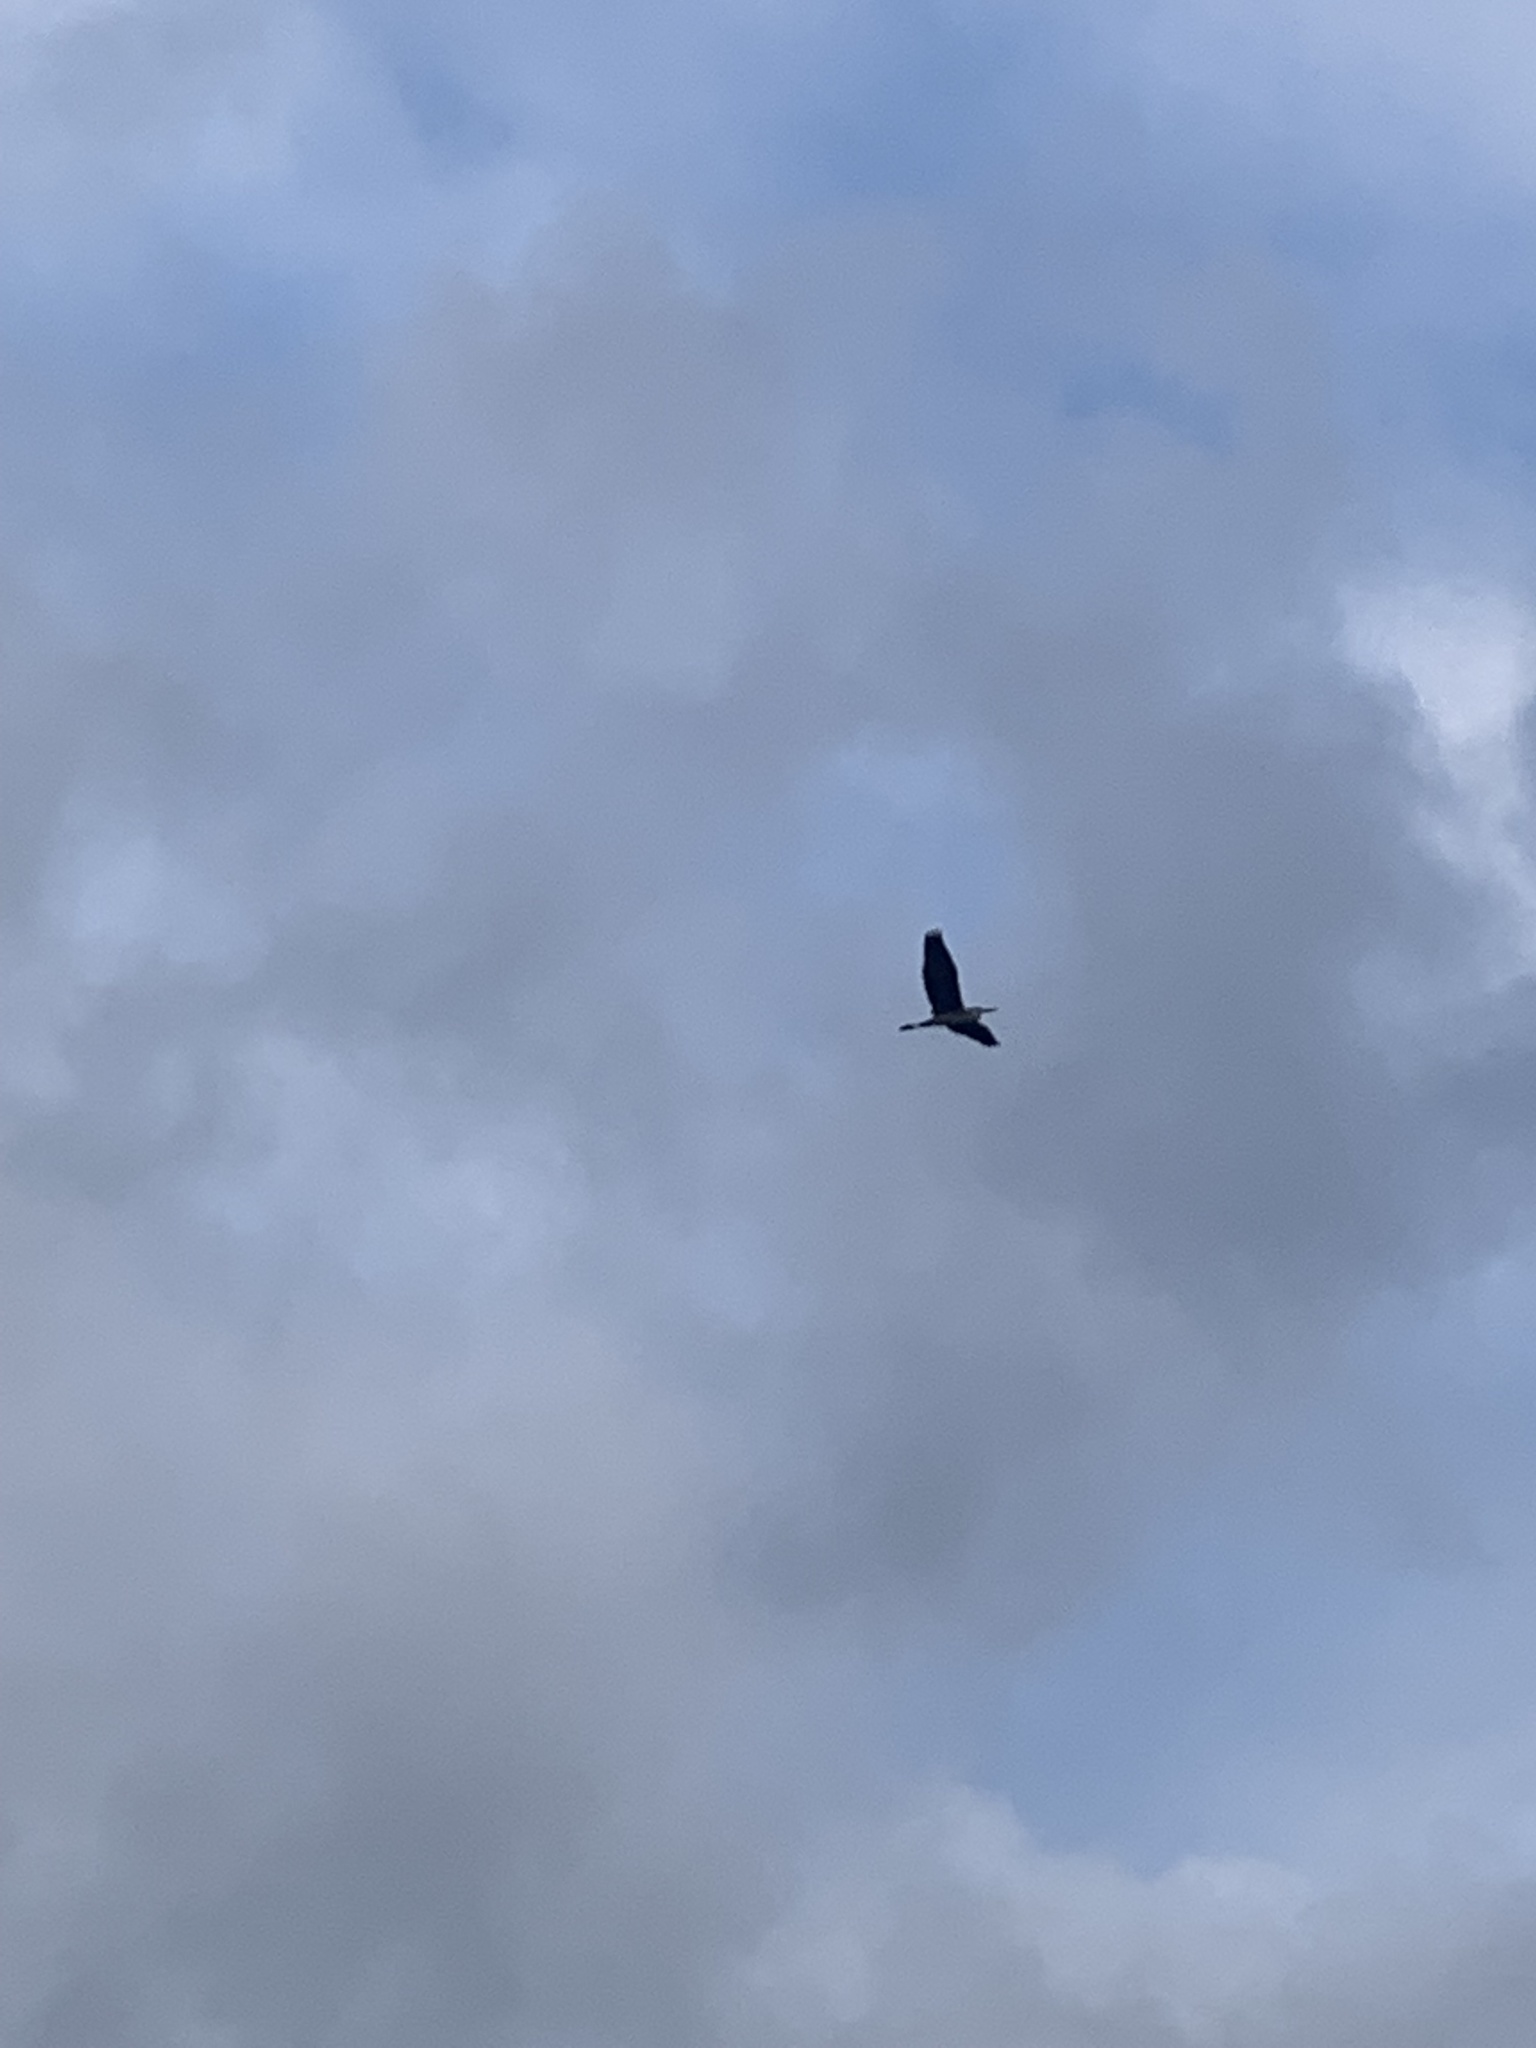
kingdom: Animalia
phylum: Chordata
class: Aves
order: Pelecaniformes
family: Ardeidae
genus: Ardea
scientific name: Ardea cinerea
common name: Grey heron
